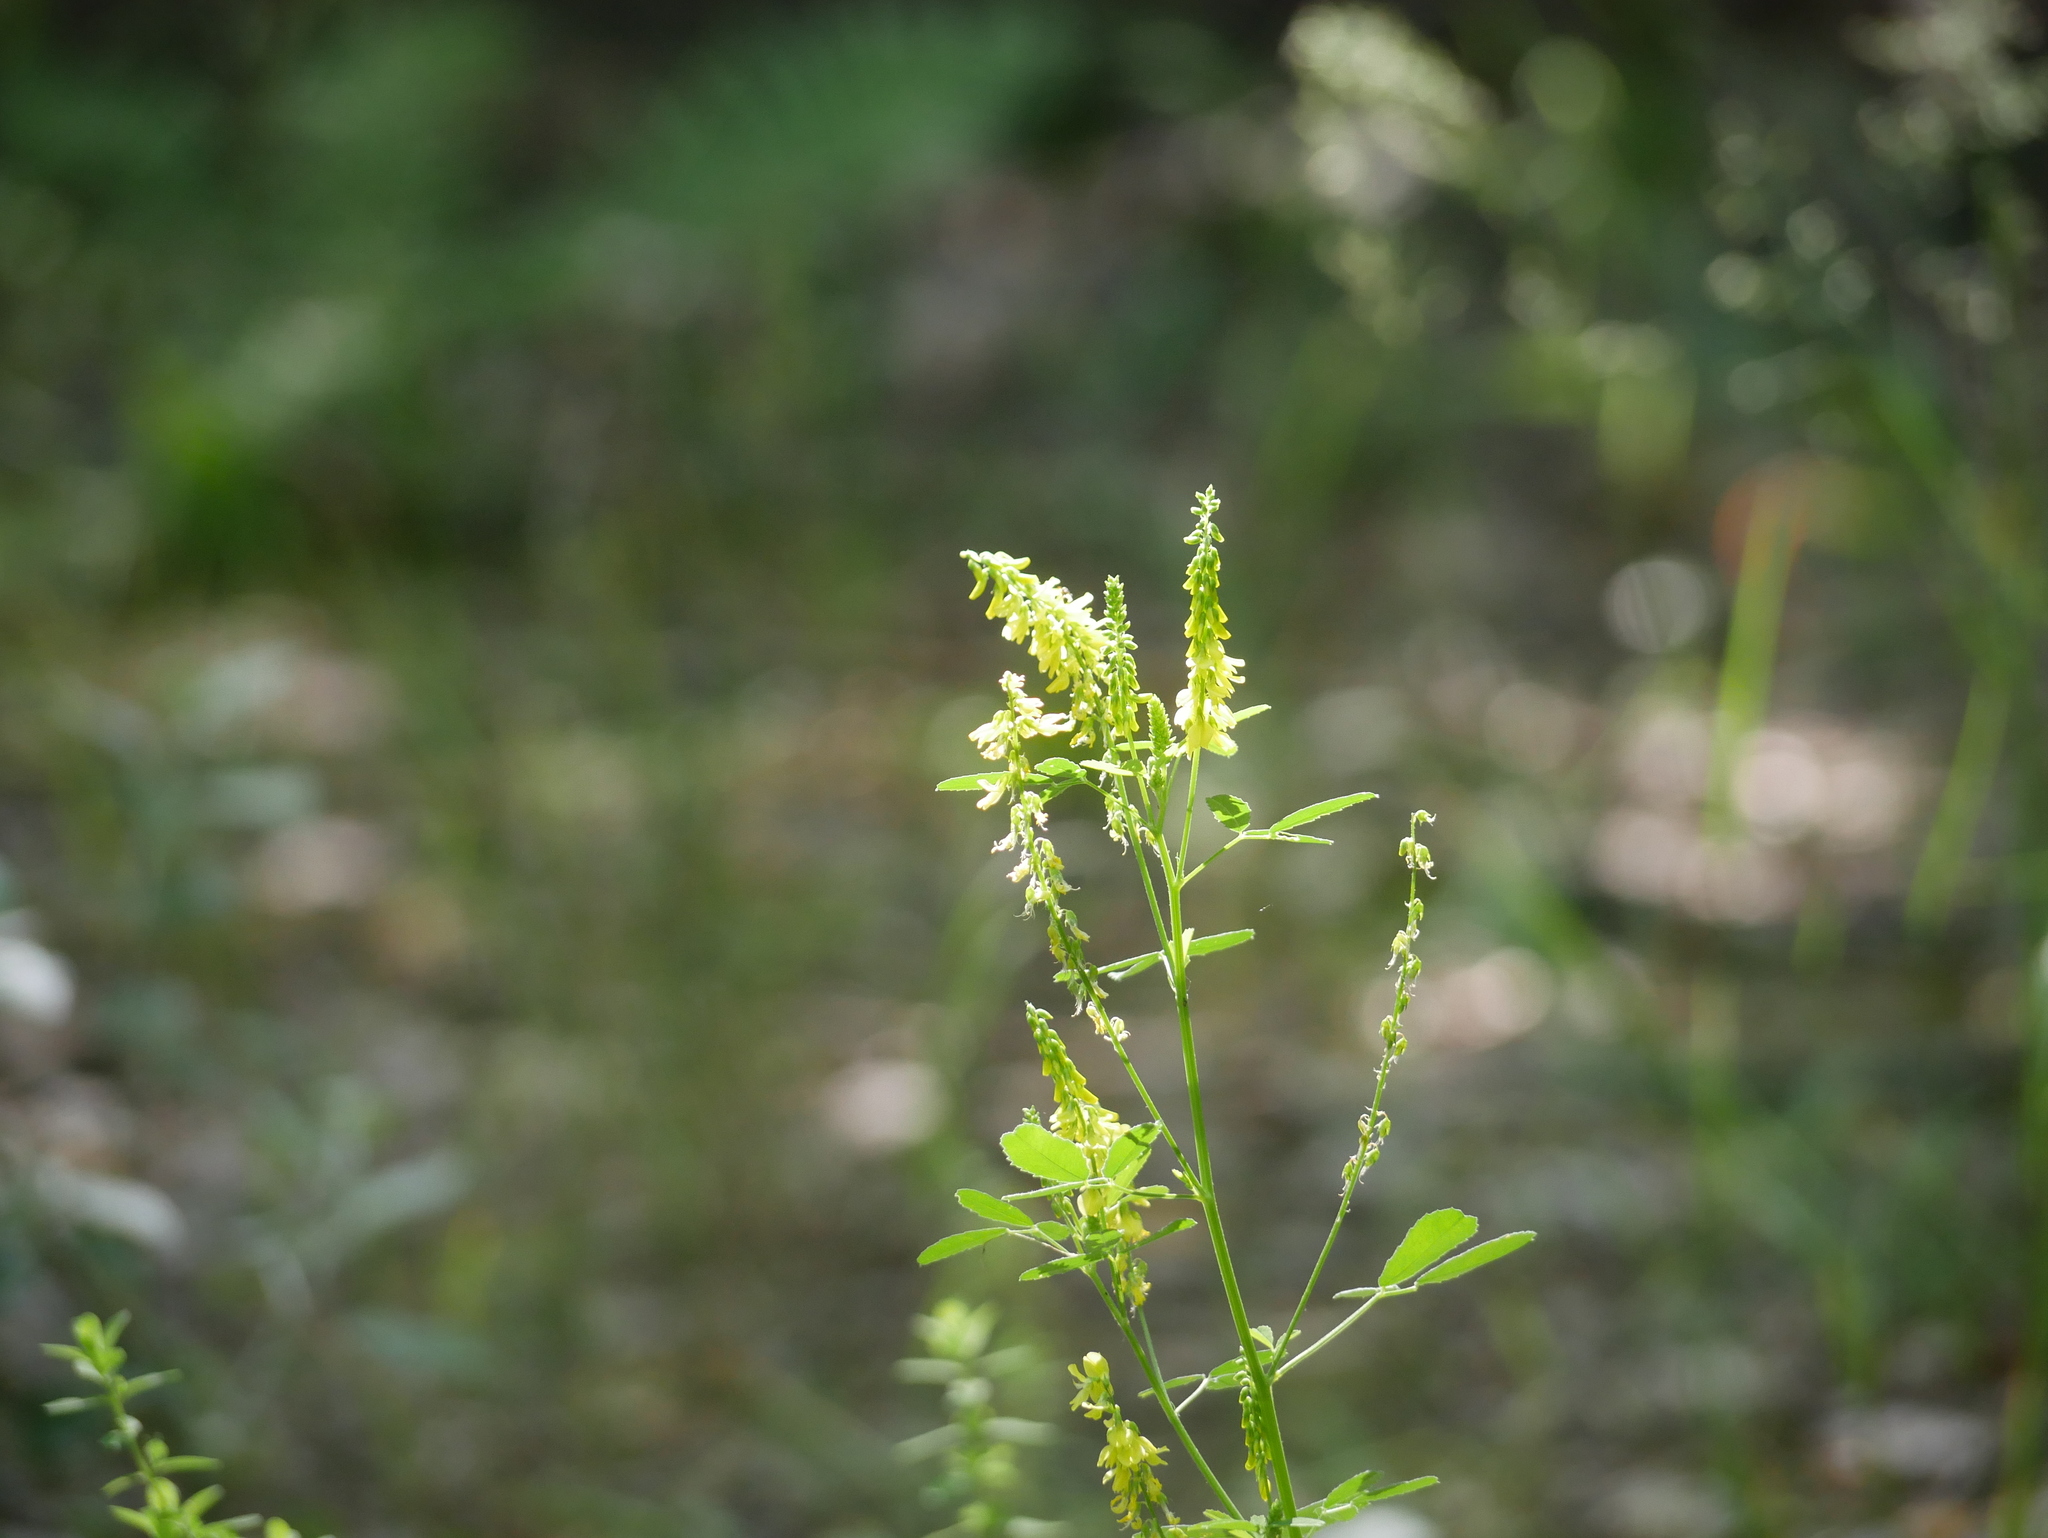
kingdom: Plantae
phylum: Tracheophyta
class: Magnoliopsida
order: Fabales
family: Fabaceae
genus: Melilotus
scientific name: Melilotus officinalis
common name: Sweetclover
